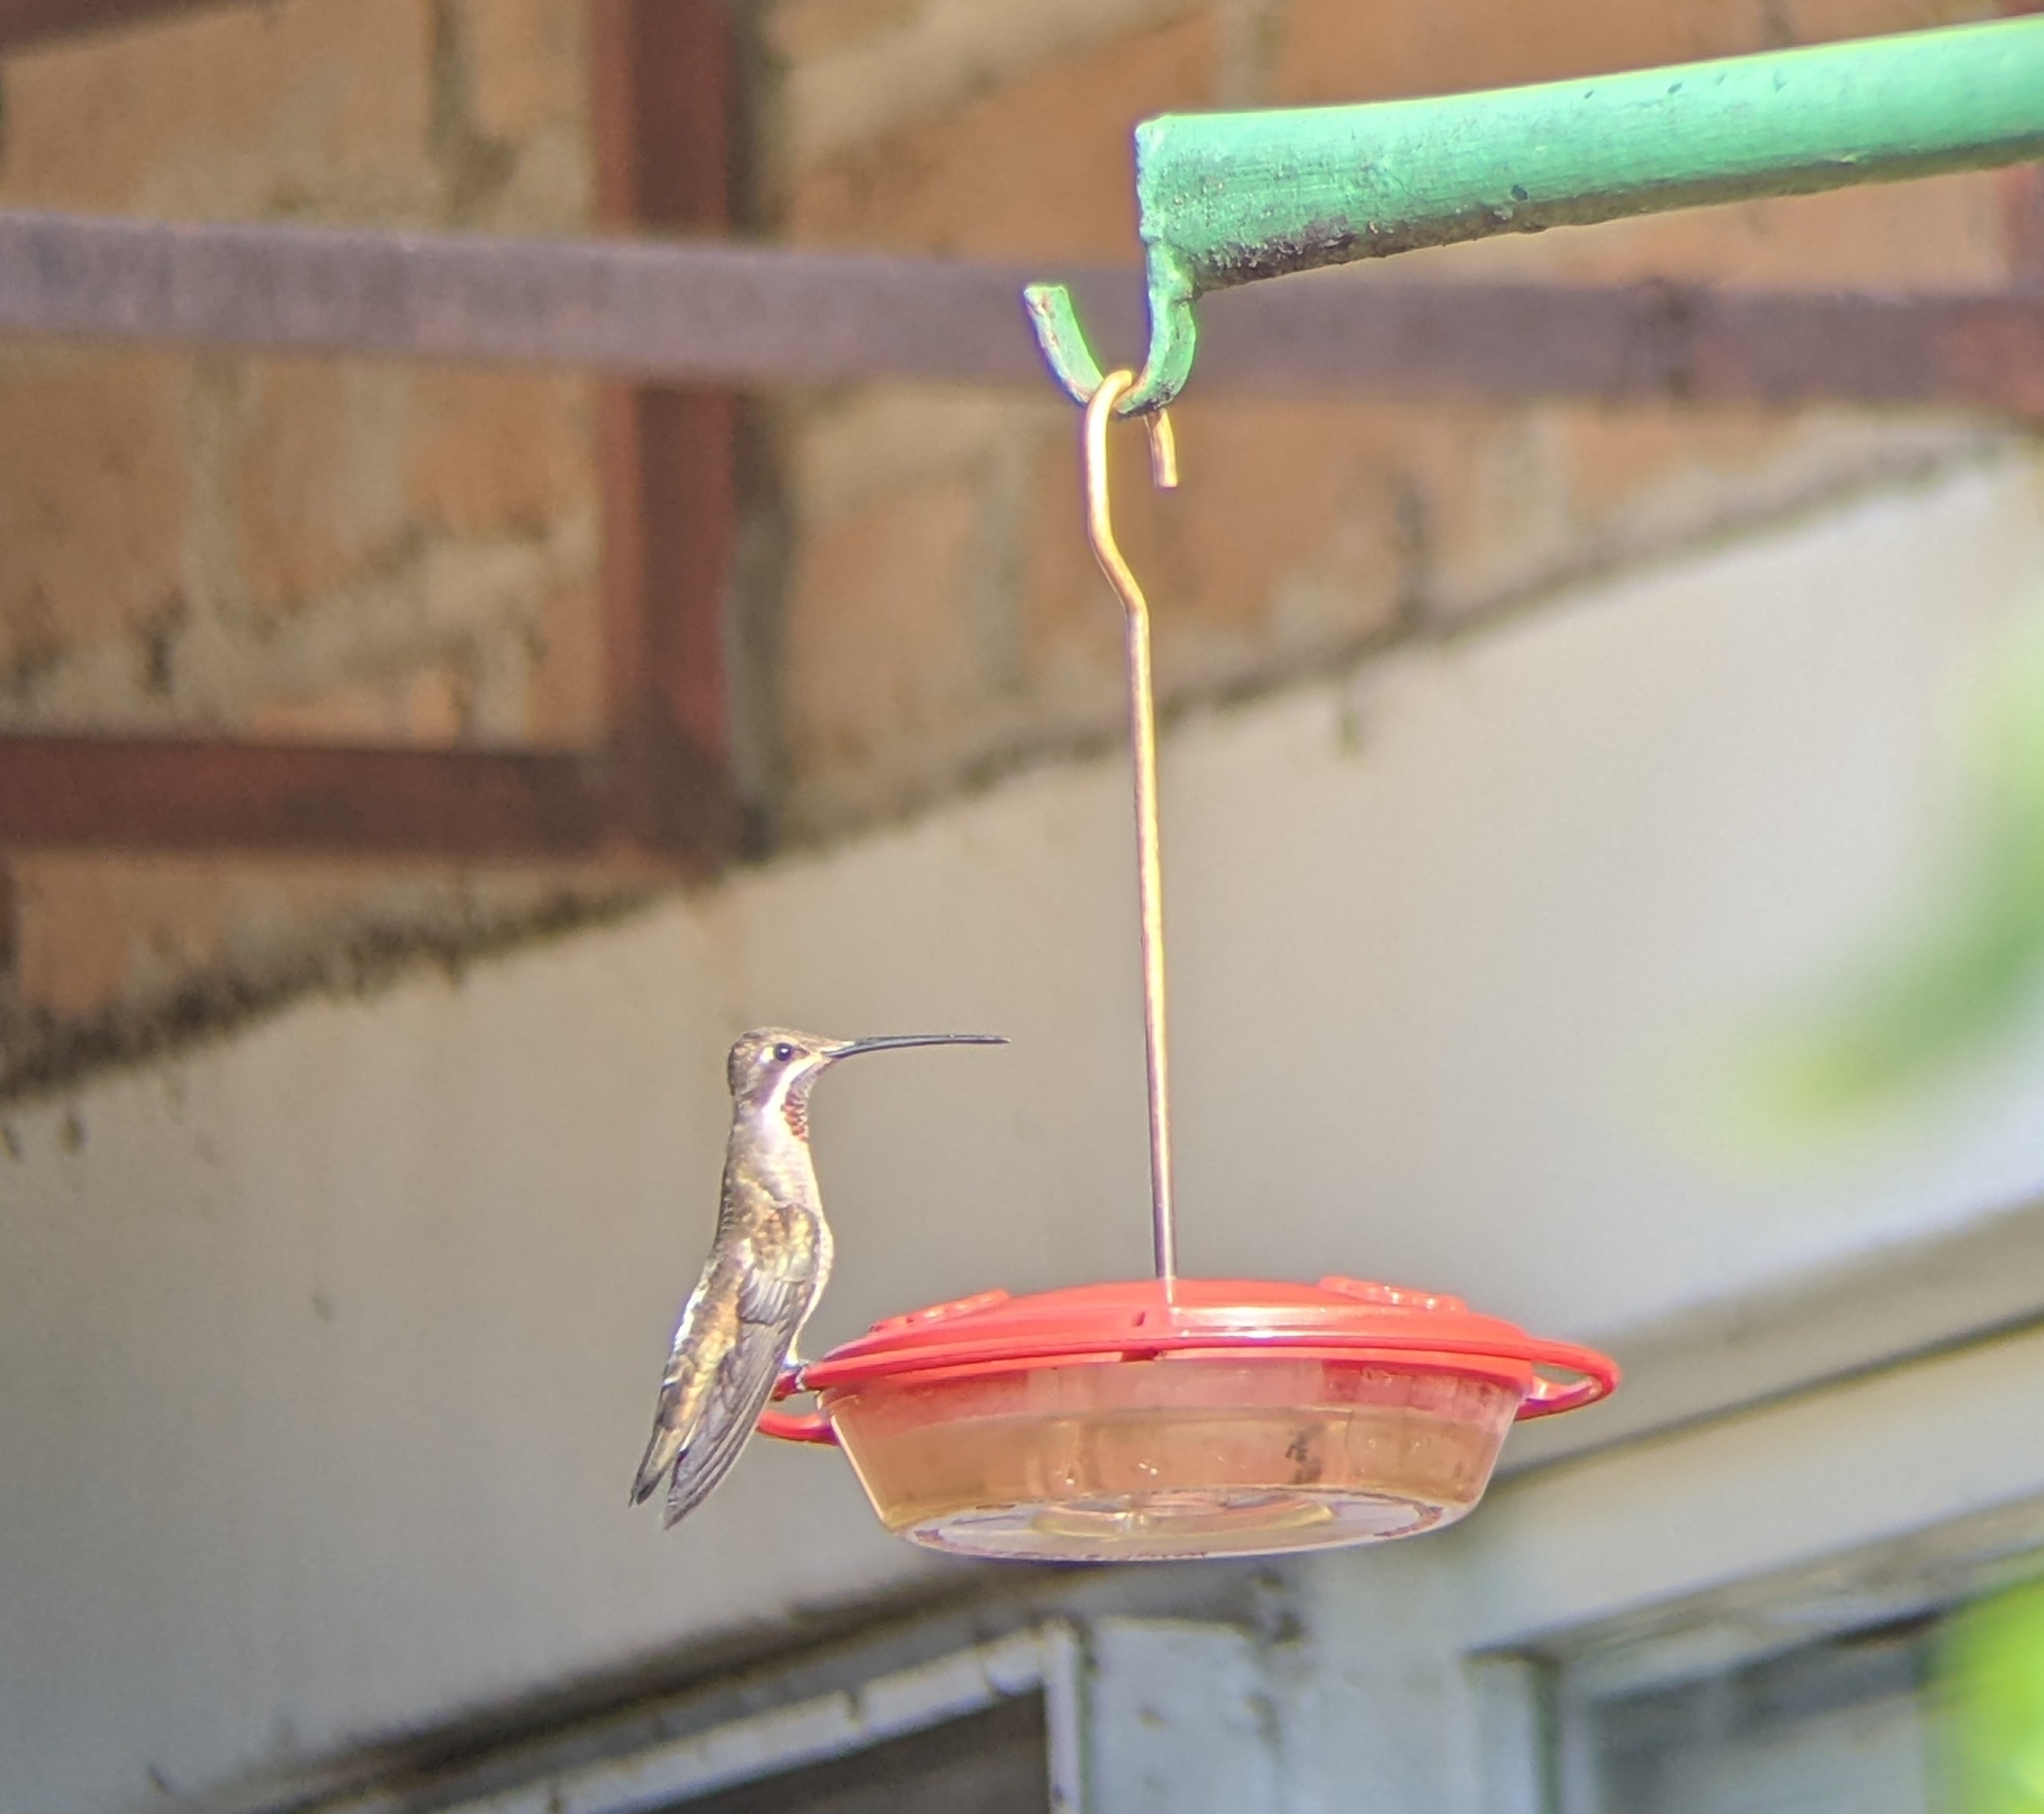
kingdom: Animalia
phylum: Chordata
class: Aves
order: Apodiformes
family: Trochilidae
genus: Heliomaster
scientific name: Heliomaster constantii
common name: Plain-capped starthroat
